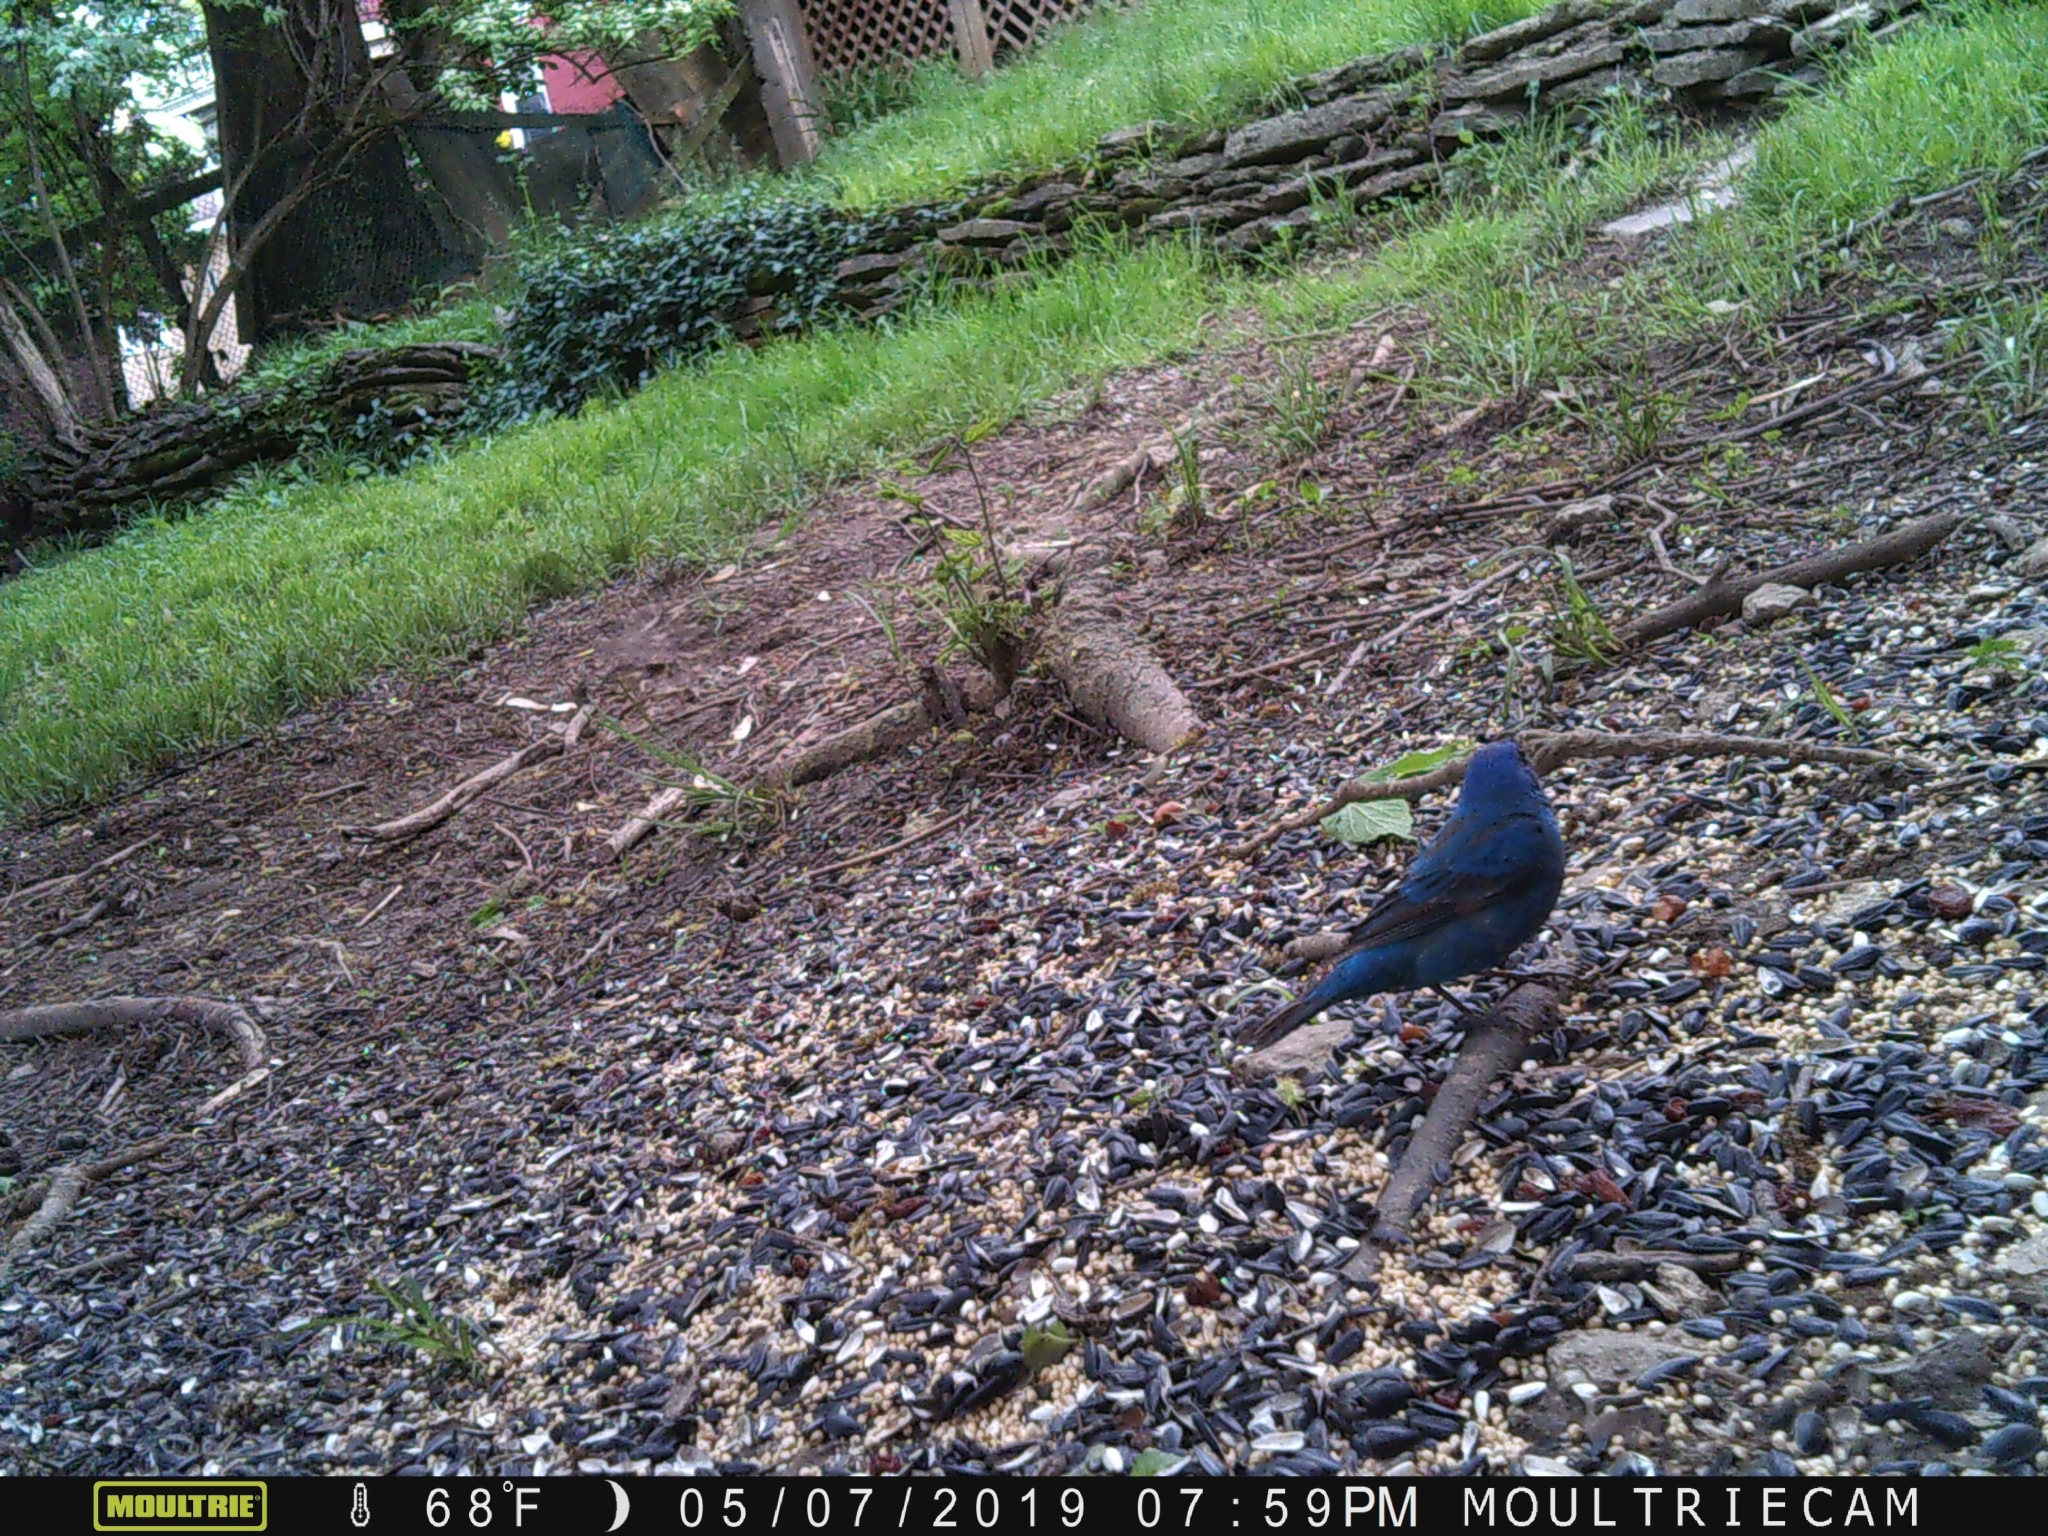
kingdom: Animalia
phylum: Chordata
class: Aves
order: Passeriformes
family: Cardinalidae
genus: Passerina
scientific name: Passerina cyanea
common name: Indigo bunting
